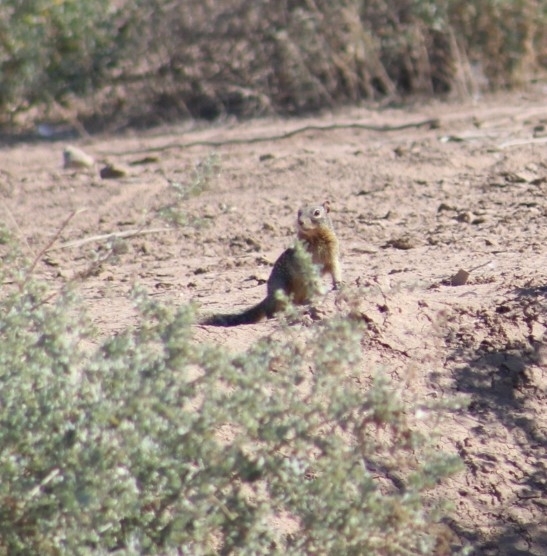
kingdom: Animalia
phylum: Chordata
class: Mammalia
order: Rodentia
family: Sciuridae
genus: Otospermophilus
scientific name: Otospermophilus beecheyi
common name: California ground squirrel
